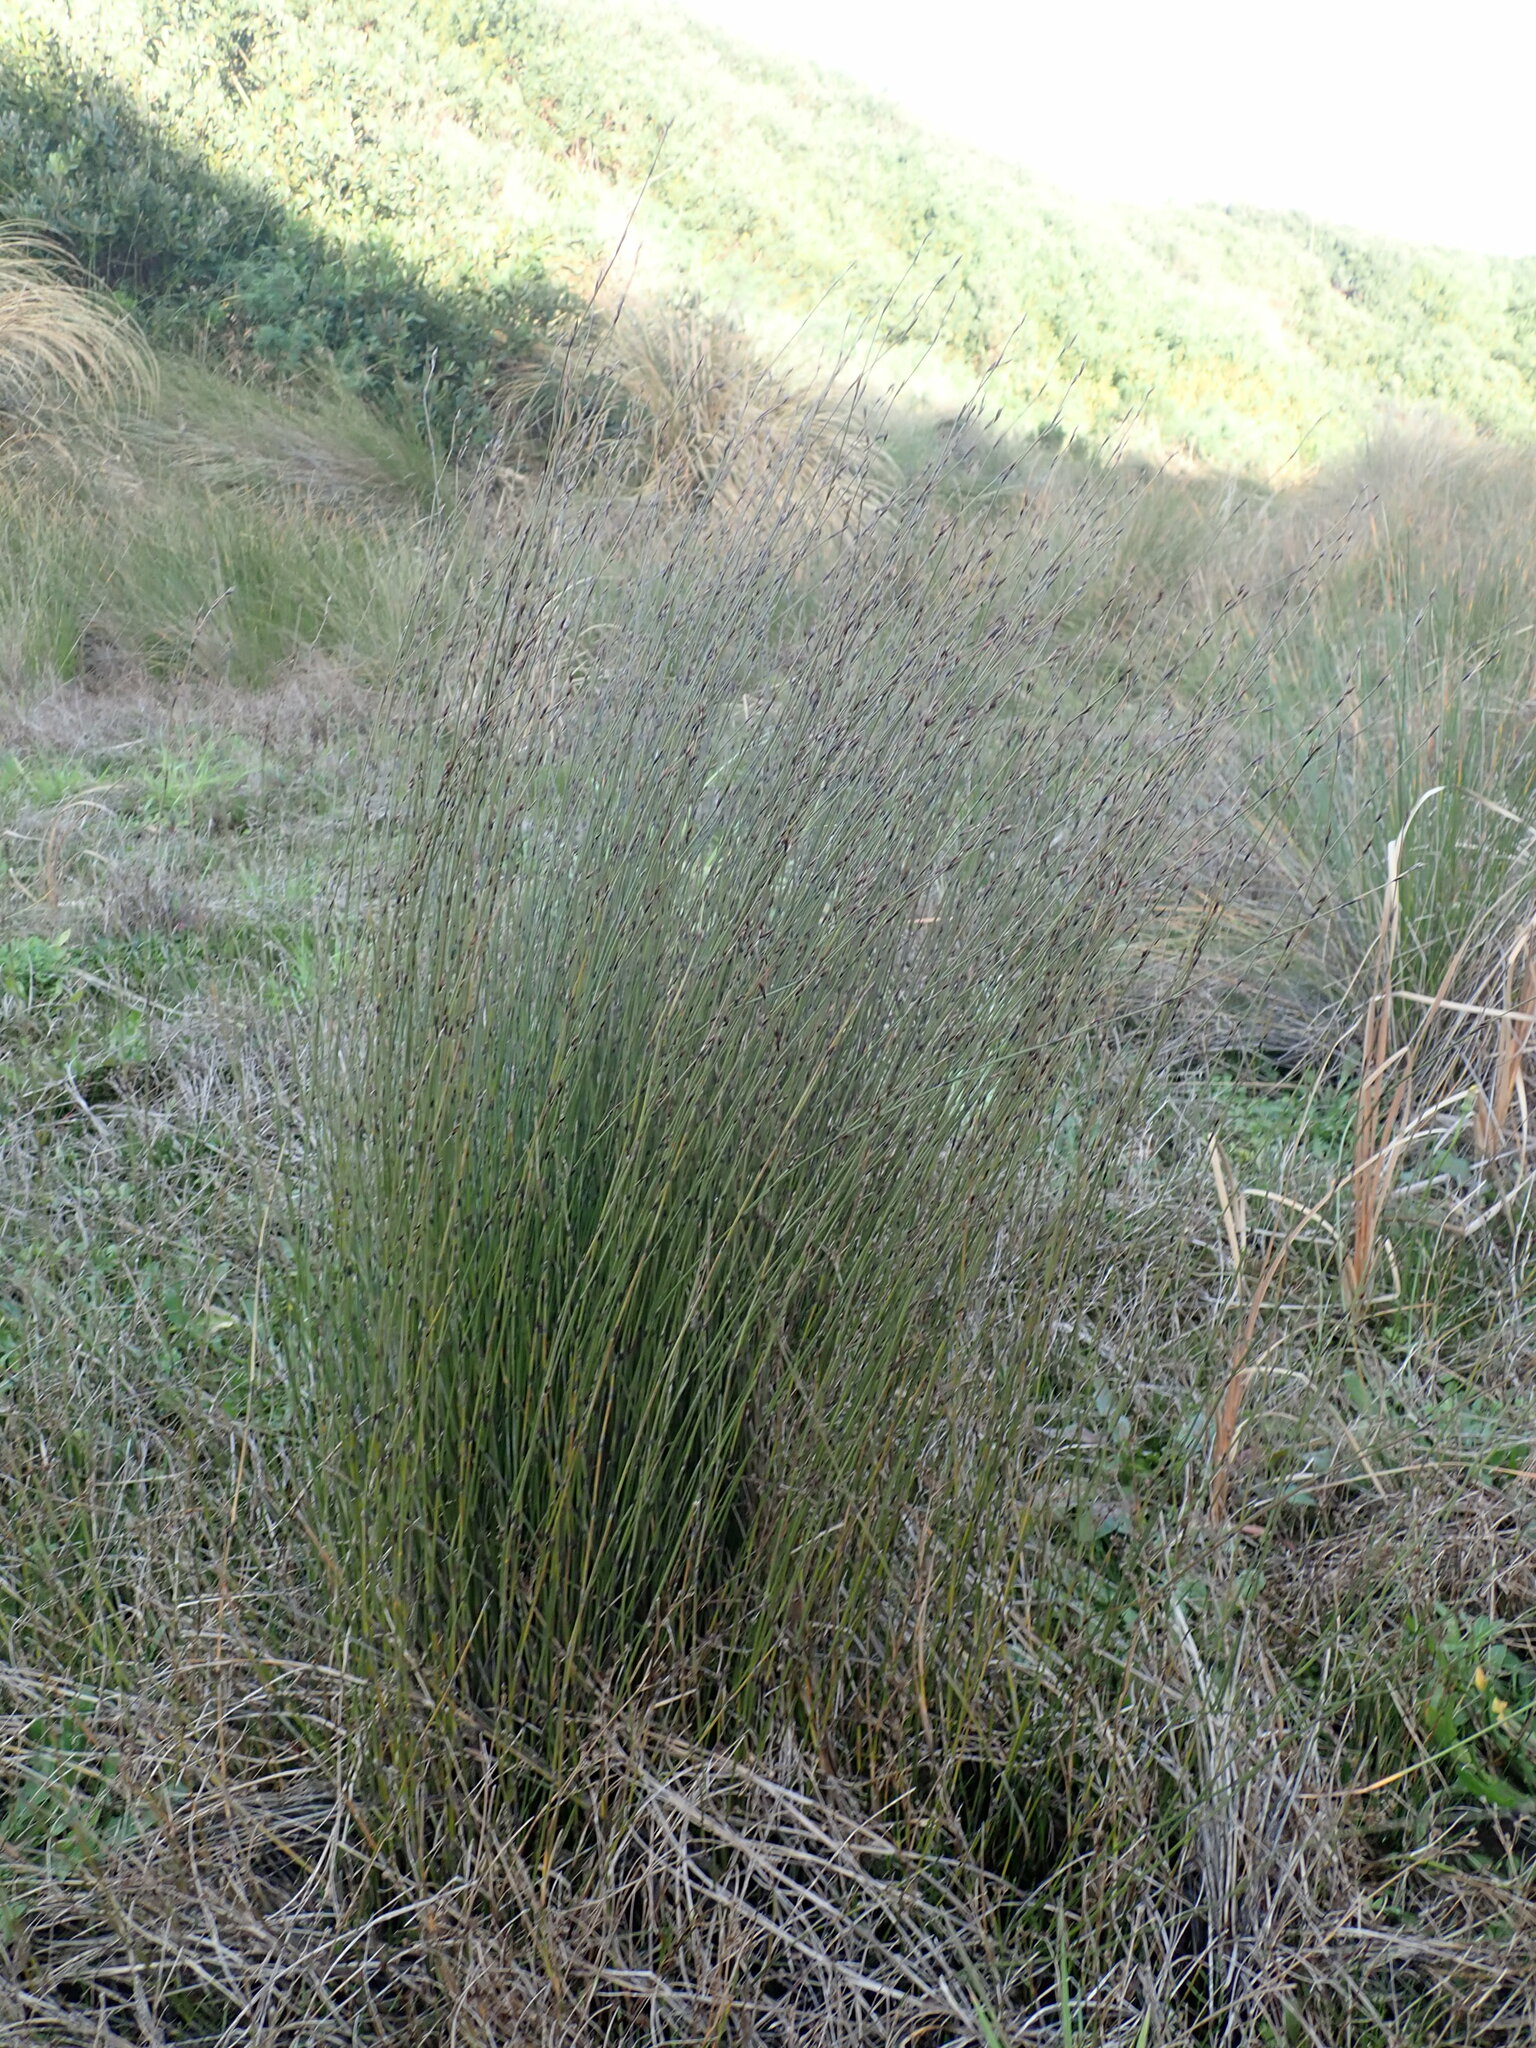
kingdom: Plantae
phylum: Tracheophyta
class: Liliopsida
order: Poales
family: Restionaceae
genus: Apodasmia
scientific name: Apodasmia similis
